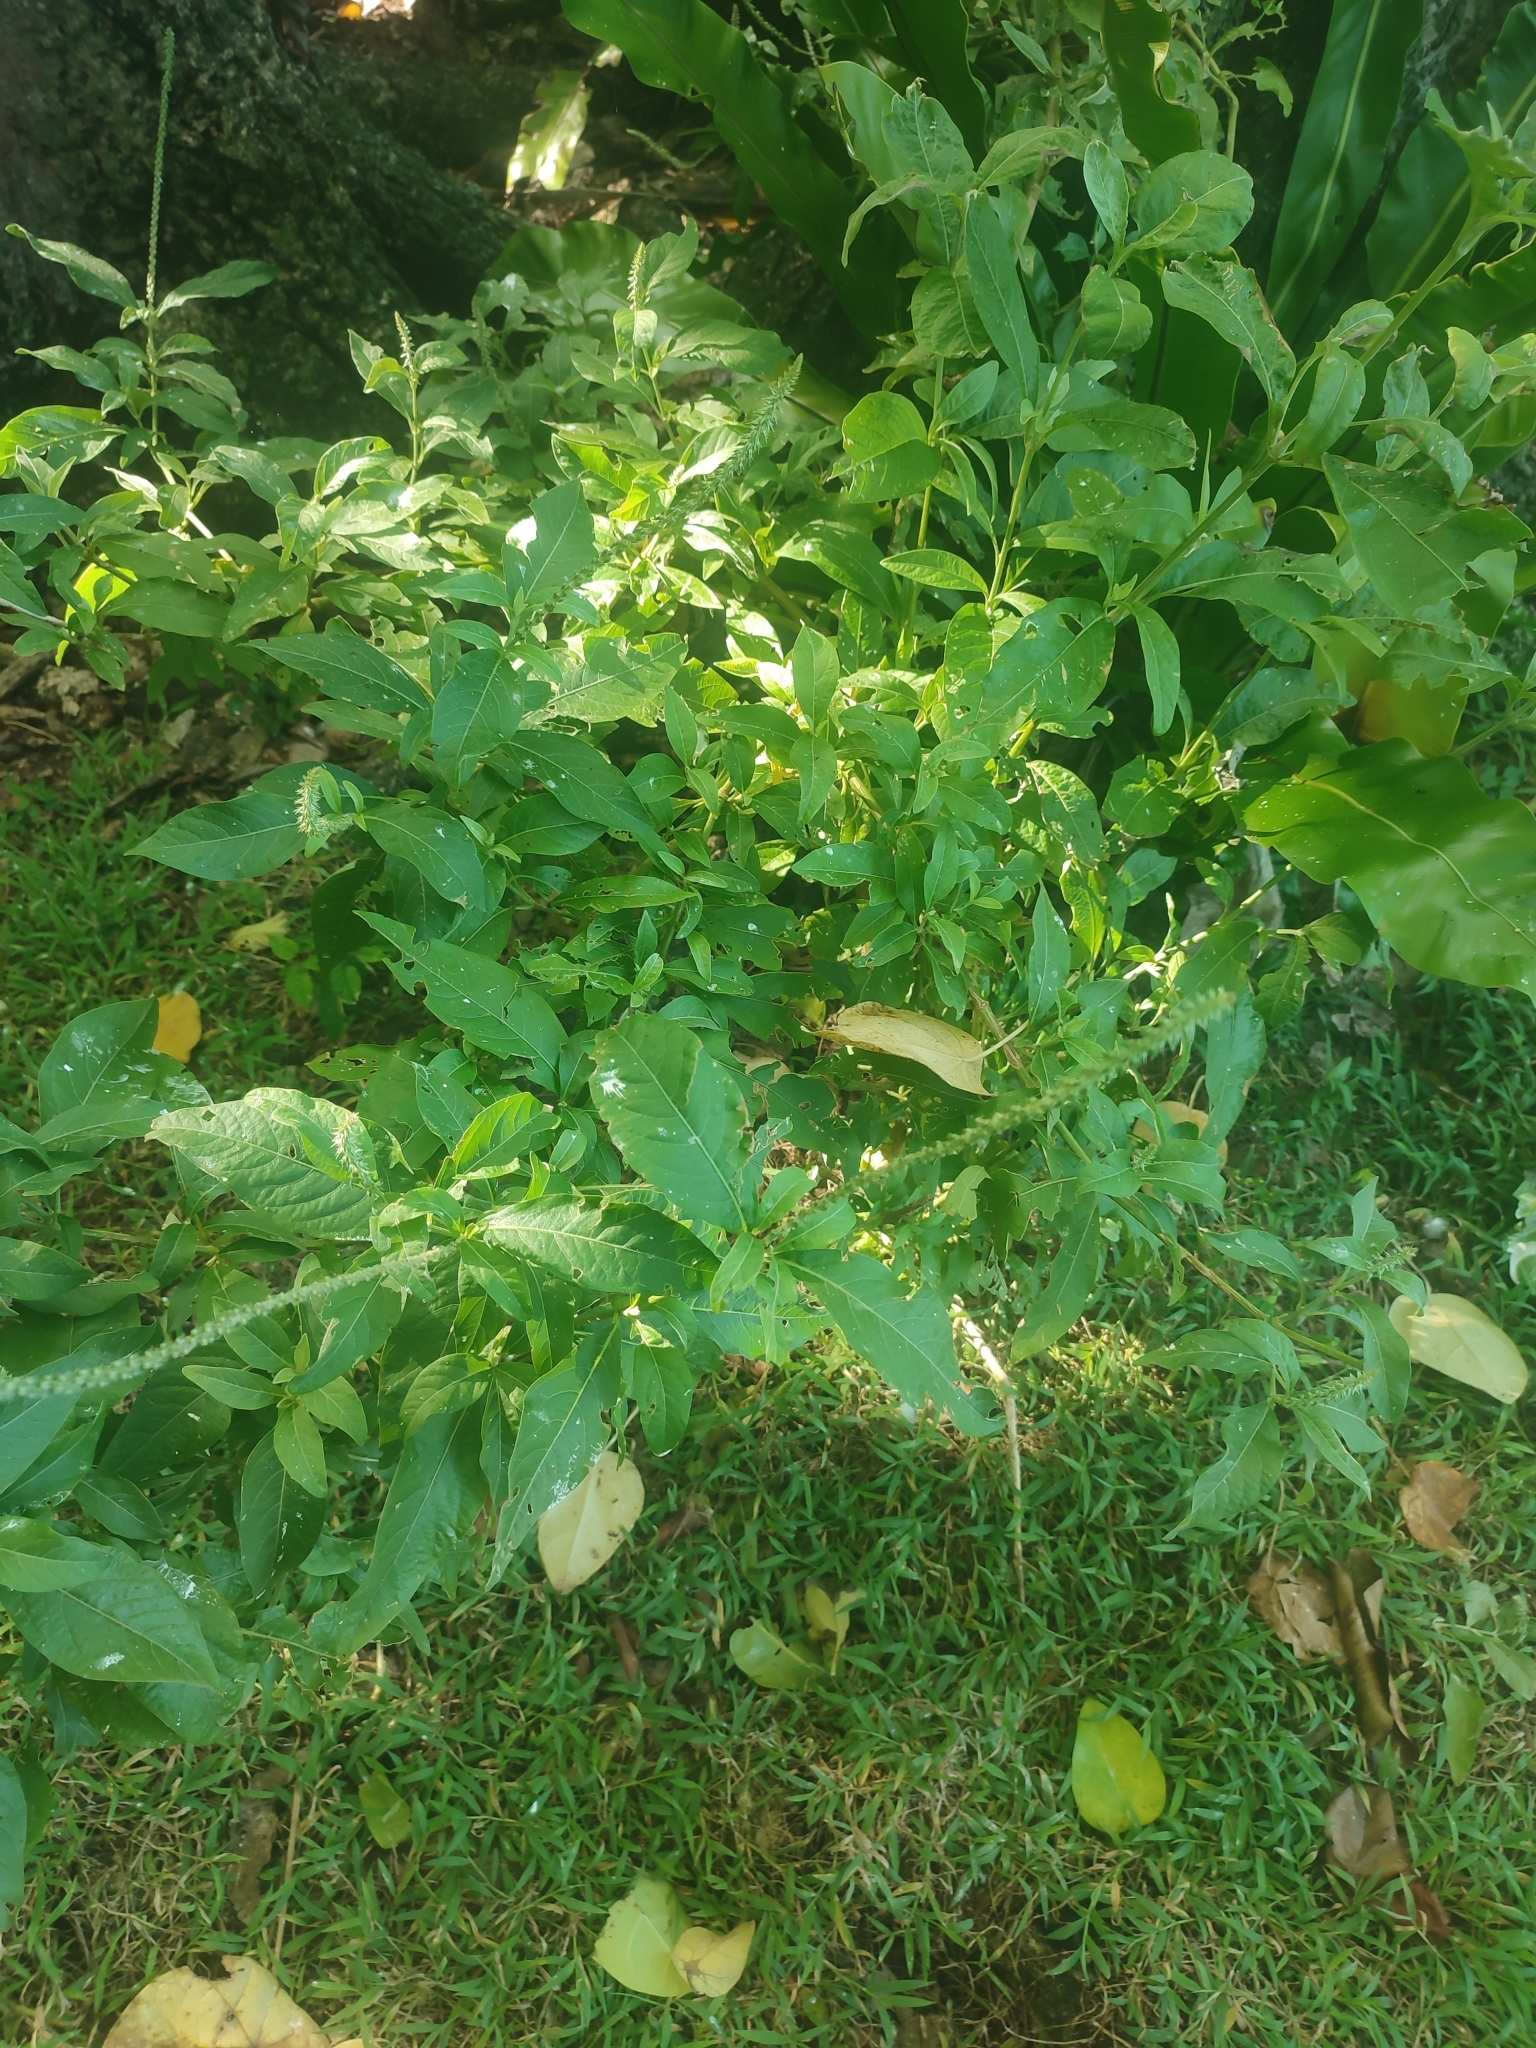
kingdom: Plantae
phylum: Tracheophyta
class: Magnoliopsida
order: Caryophyllales
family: Amaranthaceae
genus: Achyranthes
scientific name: Achyranthes aspera
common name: Devil's horsewhip
